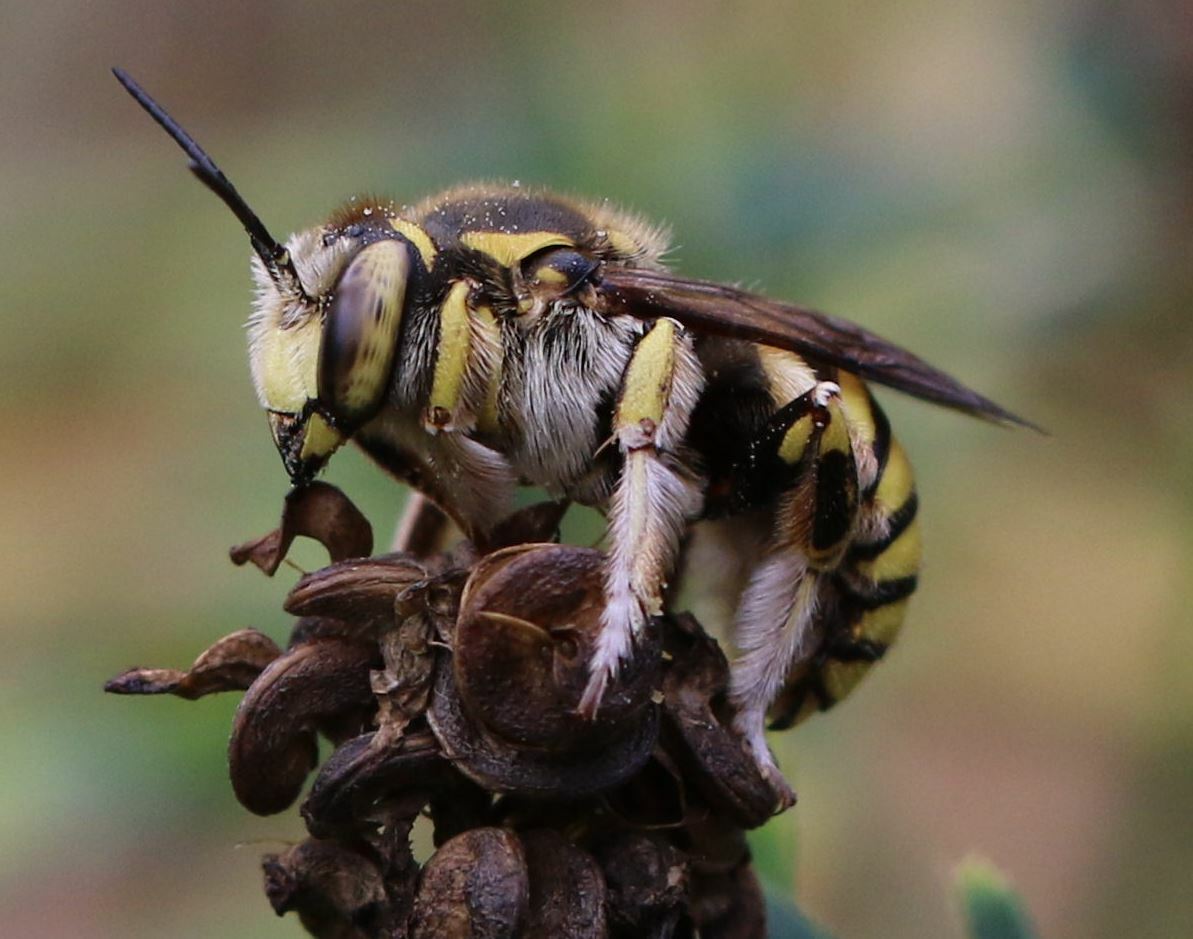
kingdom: Animalia
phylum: Arthropoda
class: Insecta
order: Hymenoptera
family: Megachilidae
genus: Anthidium
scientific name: Anthidium florentinum
